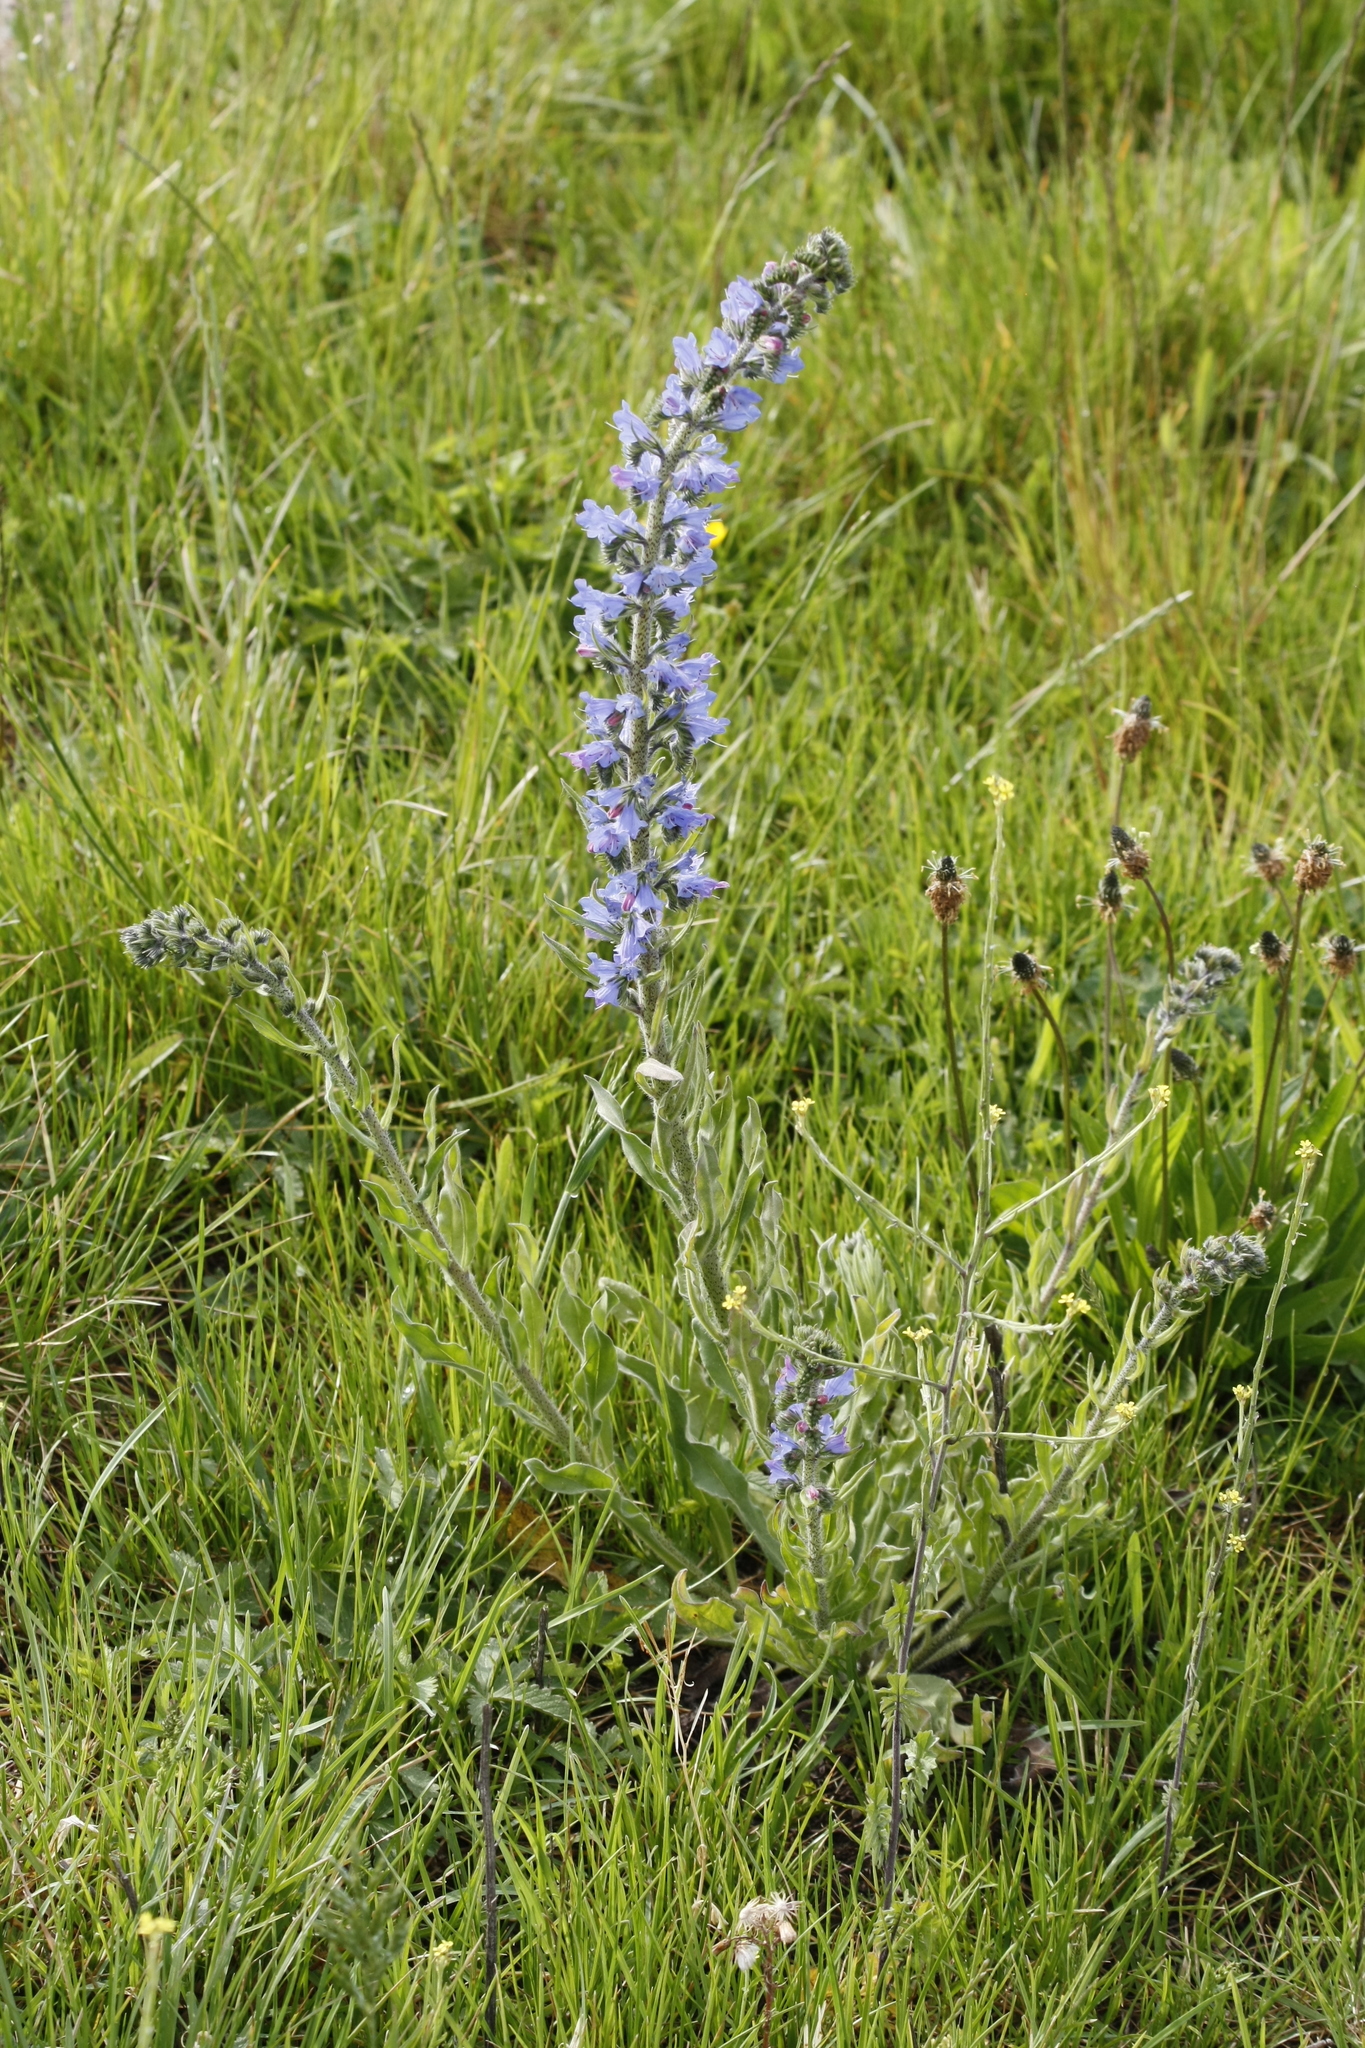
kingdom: Plantae
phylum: Tracheophyta
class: Magnoliopsida
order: Boraginales
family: Boraginaceae
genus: Echium
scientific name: Echium vulgare
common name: Common viper's bugloss
